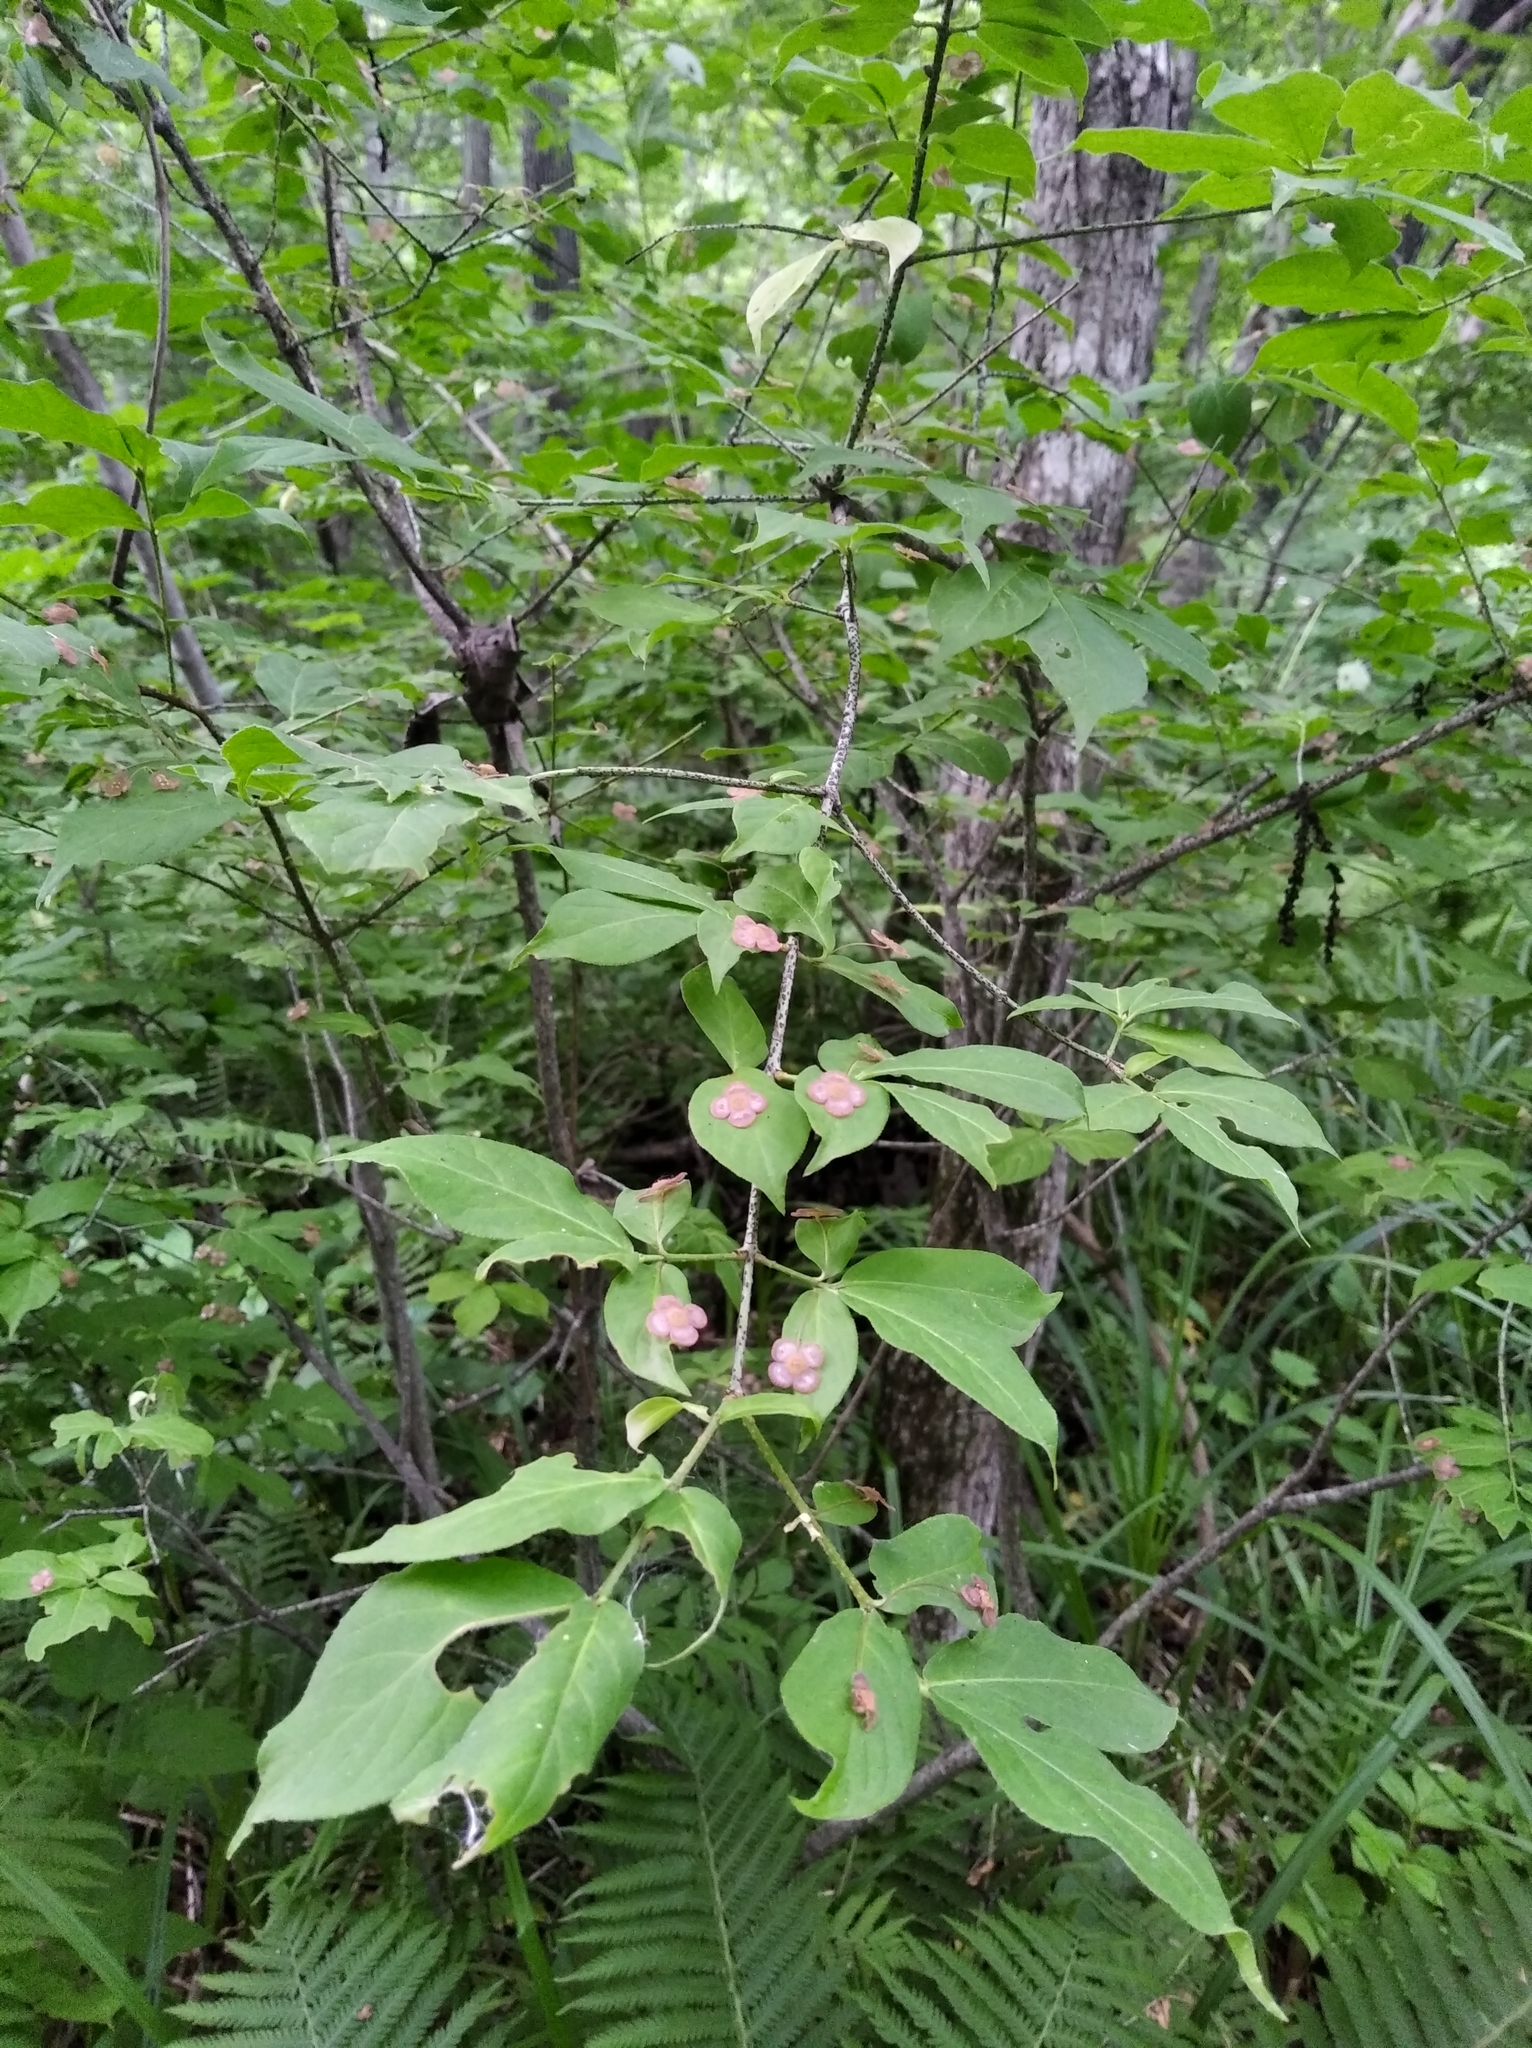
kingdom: Plantae
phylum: Tracheophyta
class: Magnoliopsida
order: Celastrales
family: Celastraceae
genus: Euonymus
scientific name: Euonymus verrucosus
